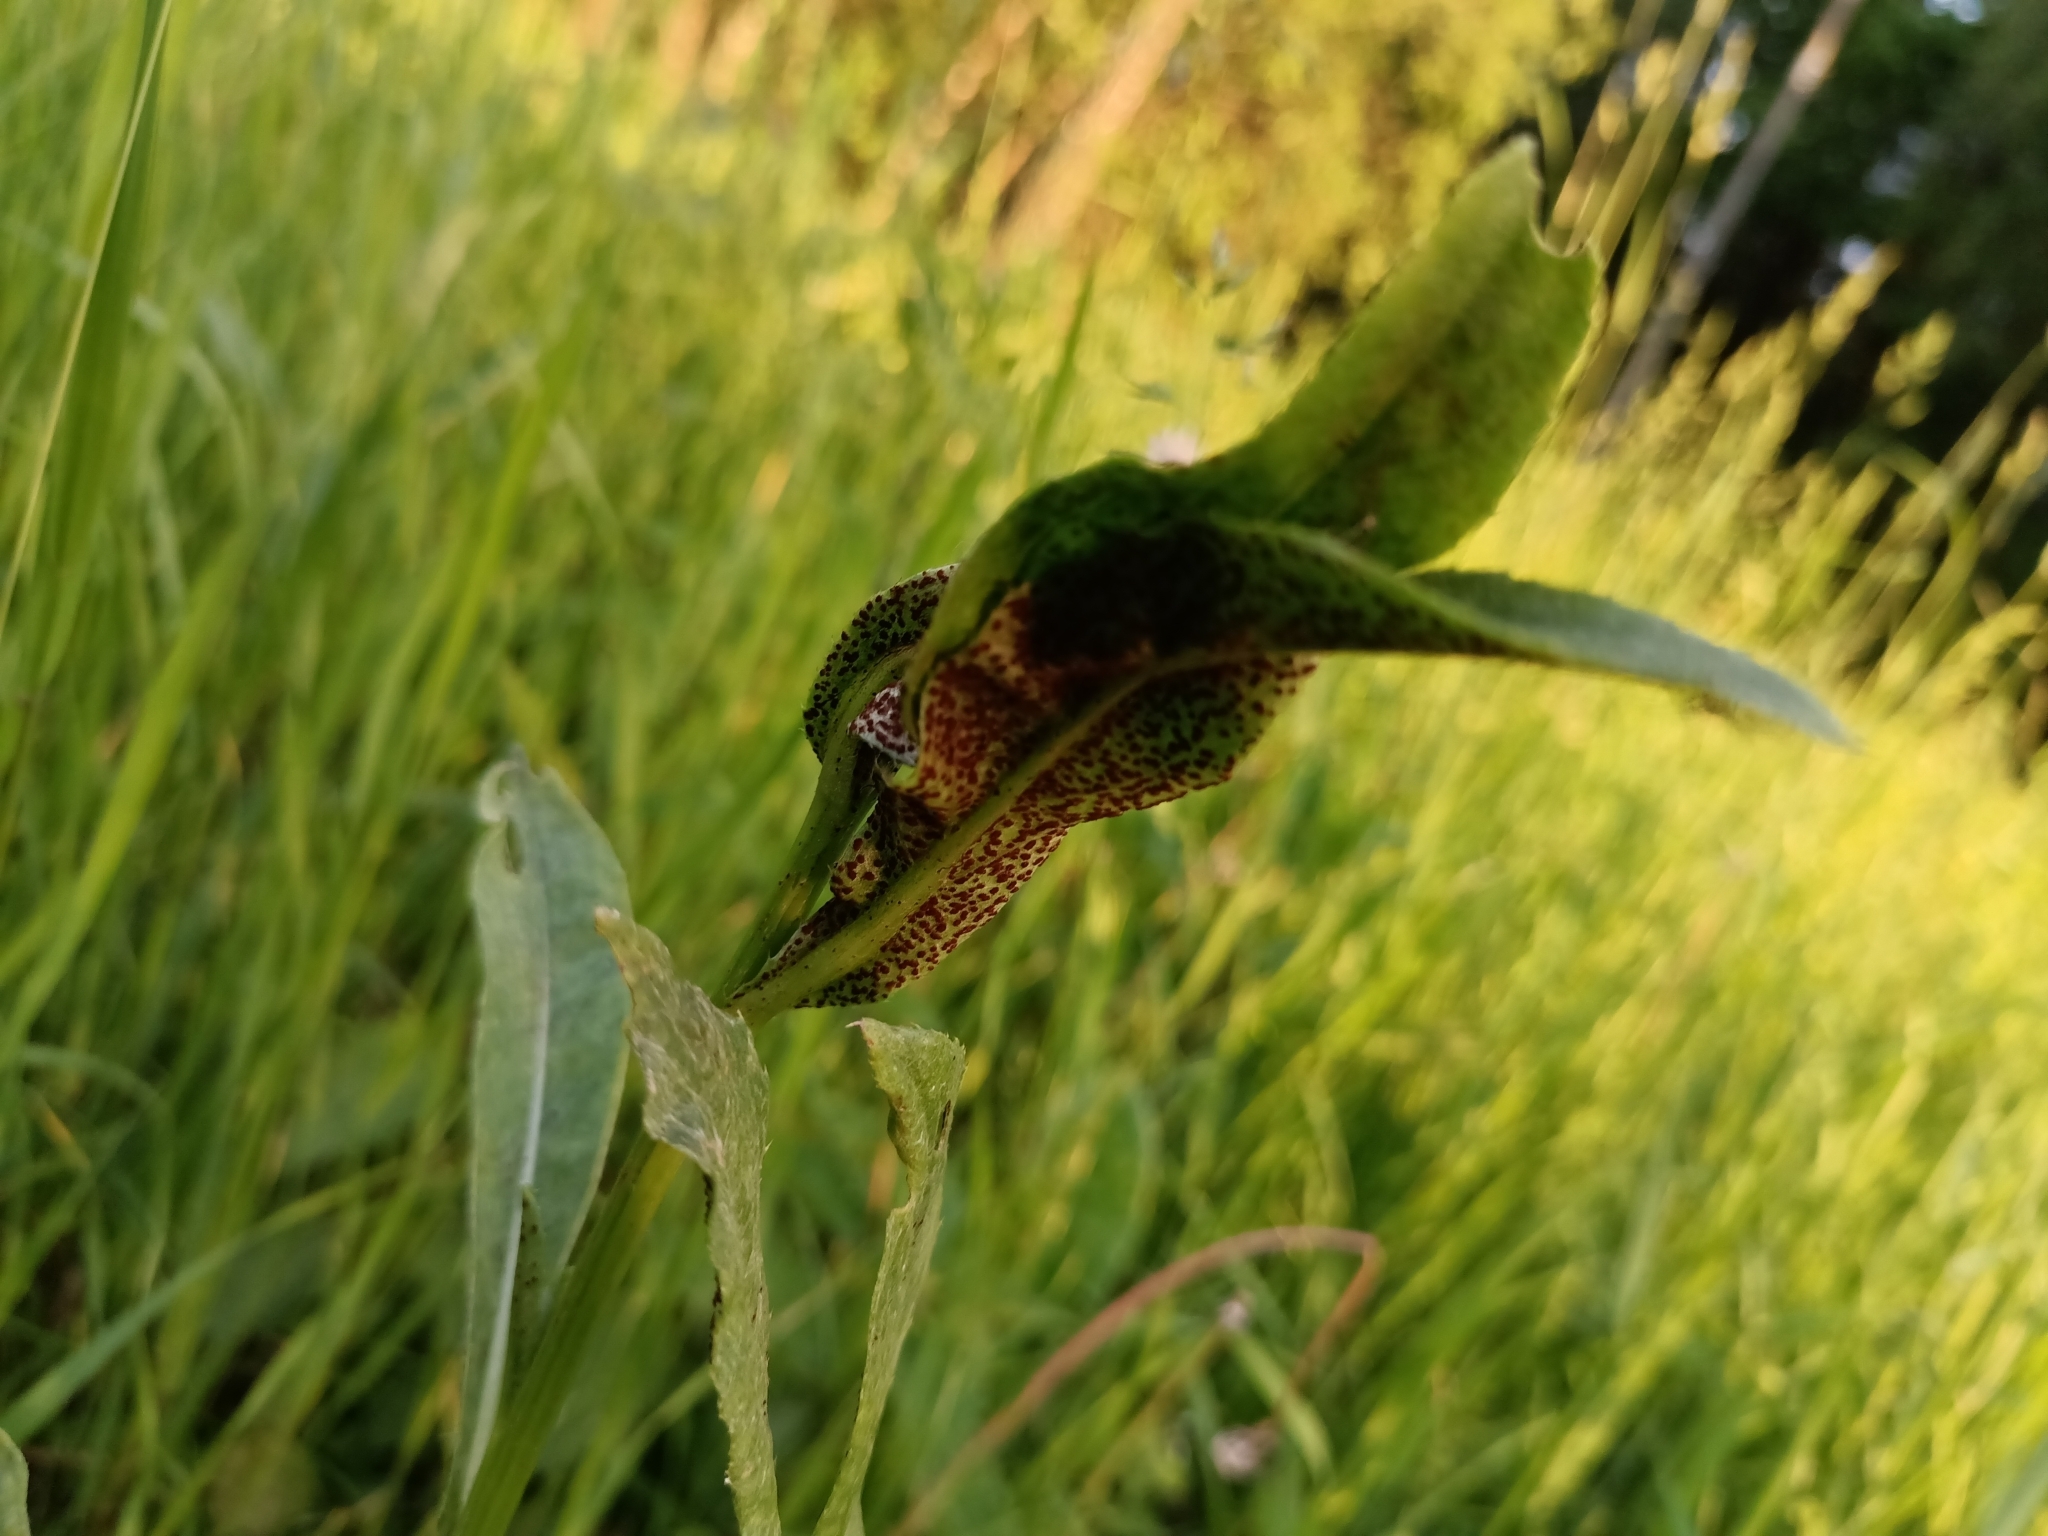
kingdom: Fungi
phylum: Basidiomycota
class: Pucciniomycetes
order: Pucciniales
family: Pucciniaceae
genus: Puccinia
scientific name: Puccinia suaveolens
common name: Thistle rust
